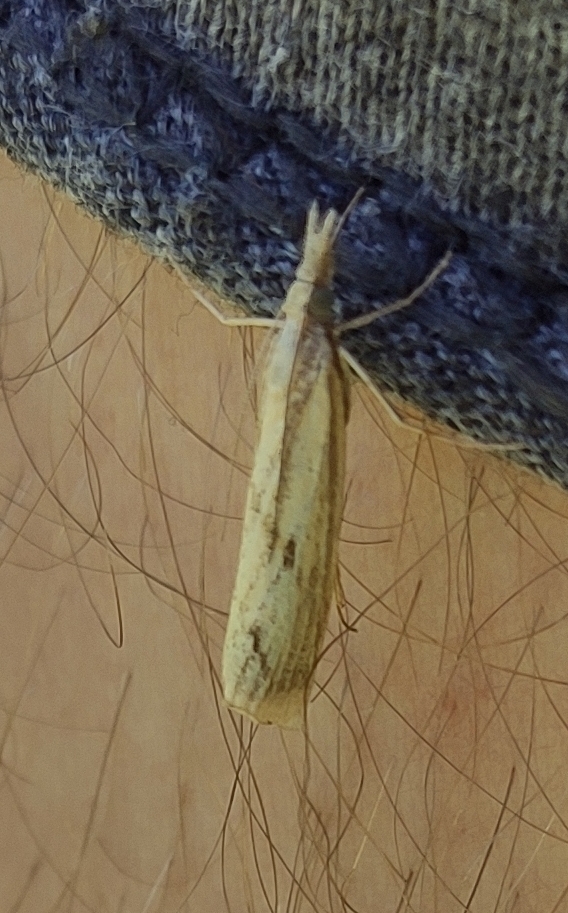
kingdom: Animalia
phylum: Arthropoda
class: Insecta
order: Lepidoptera
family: Crambidae
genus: Agriphila
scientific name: Agriphila inquinatella
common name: Barred grass-veneer
